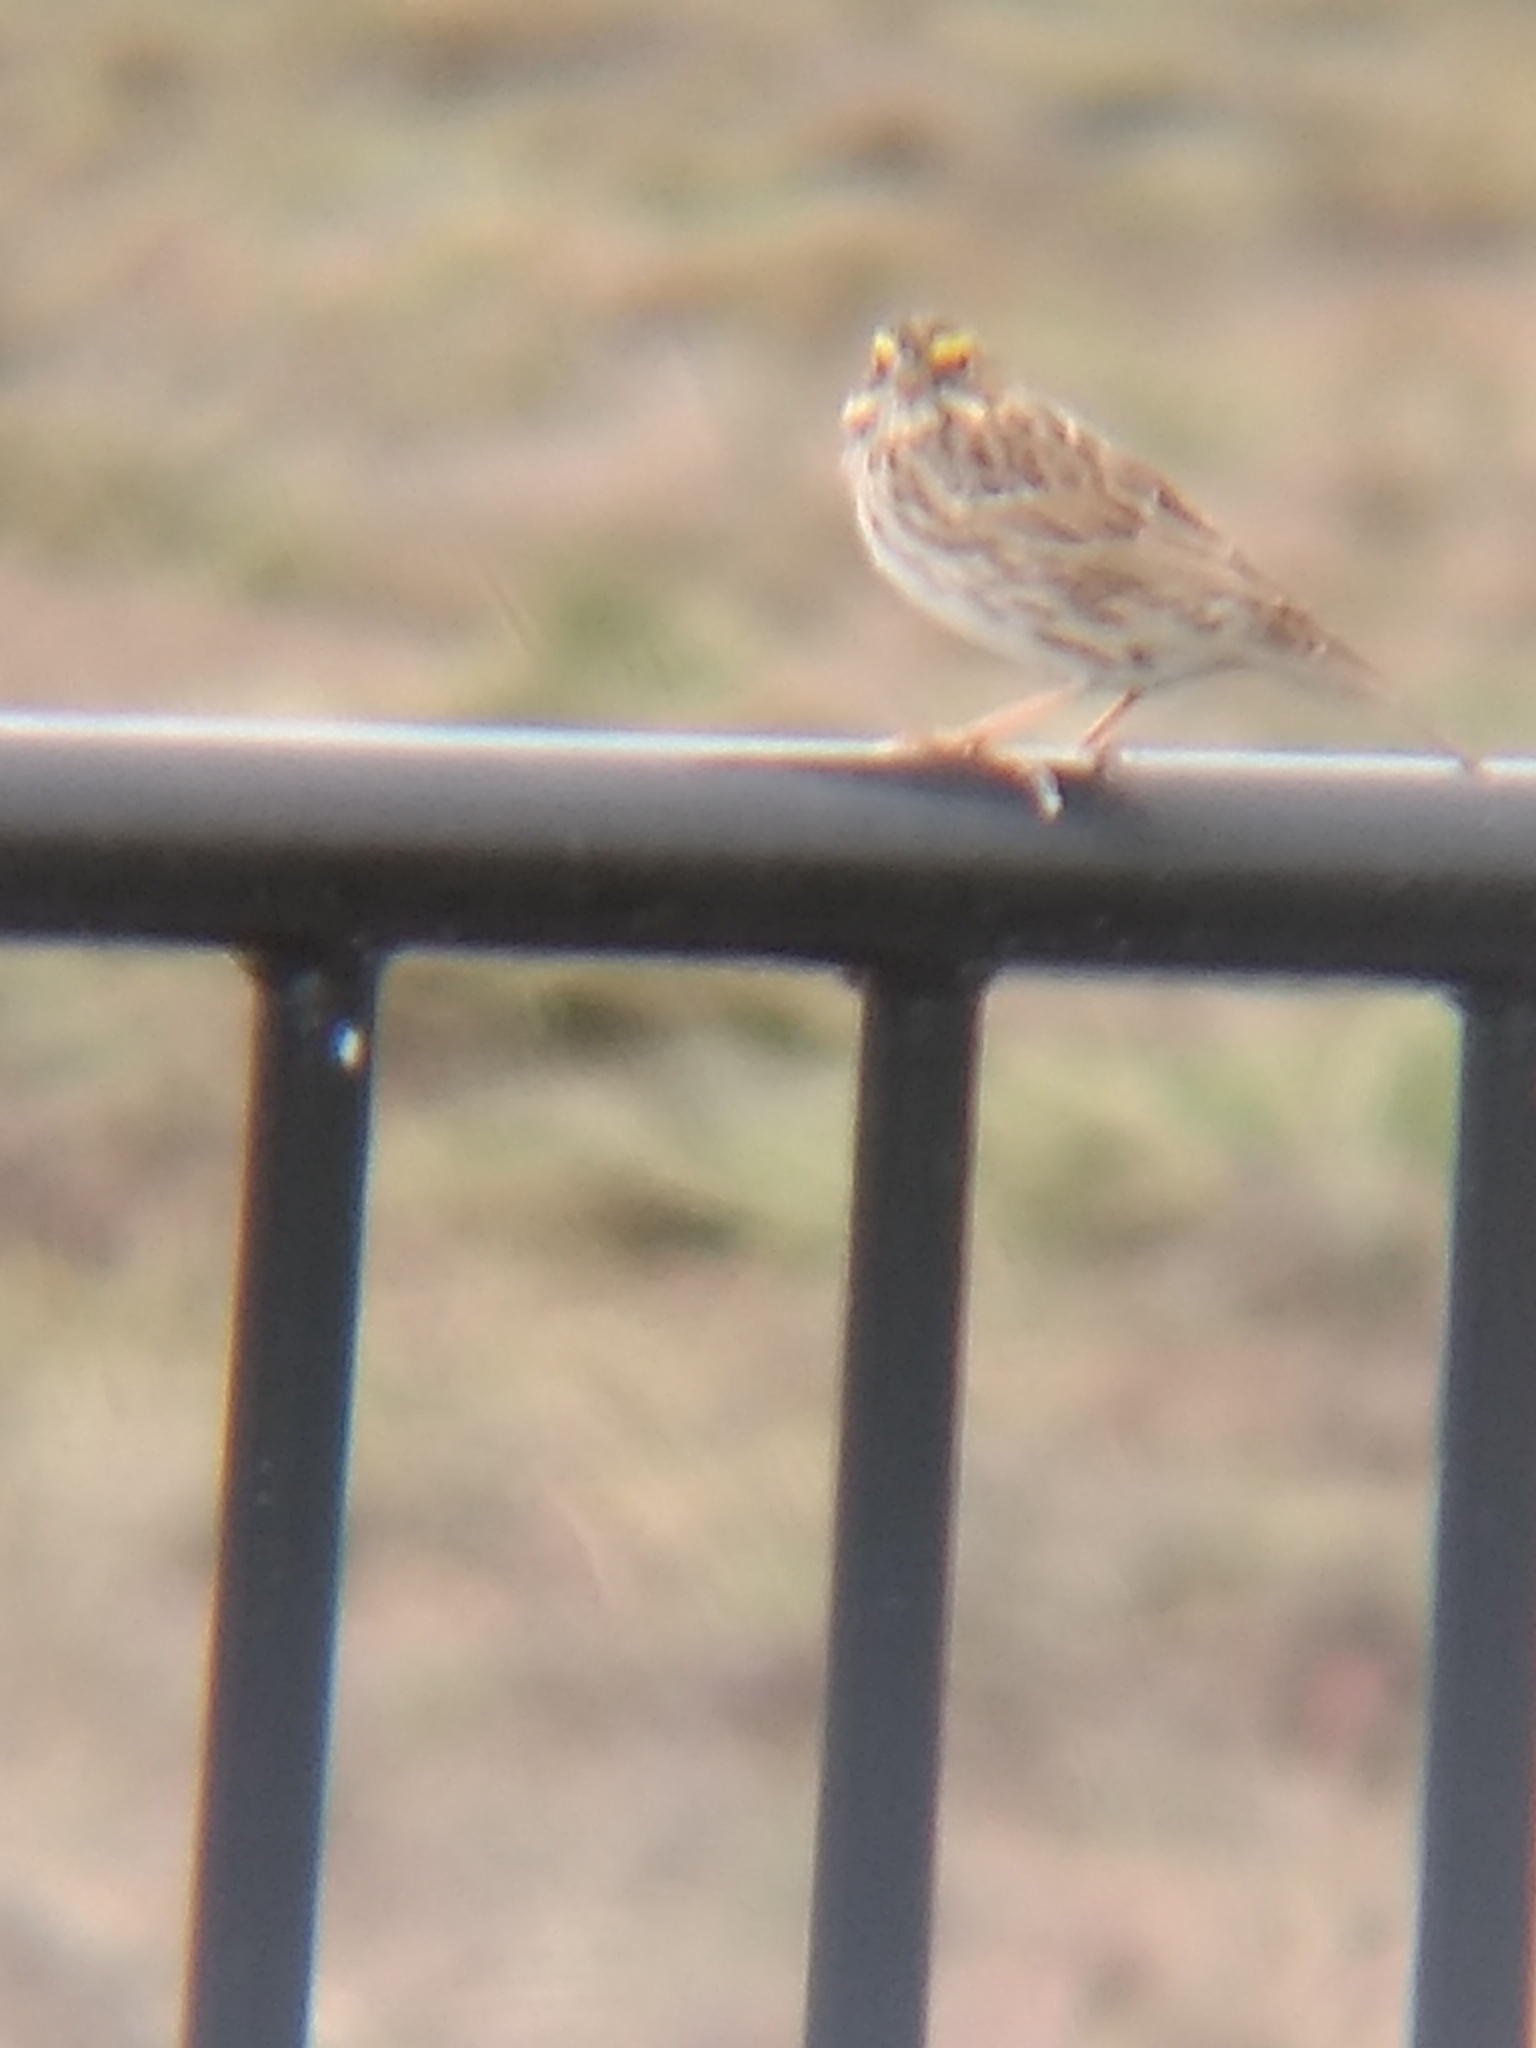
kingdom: Animalia
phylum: Chordata
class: Aves
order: Passeriformes
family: Passerellidae
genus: Passerculus
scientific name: Passerculus sandwichensis
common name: Savannah sparrow
